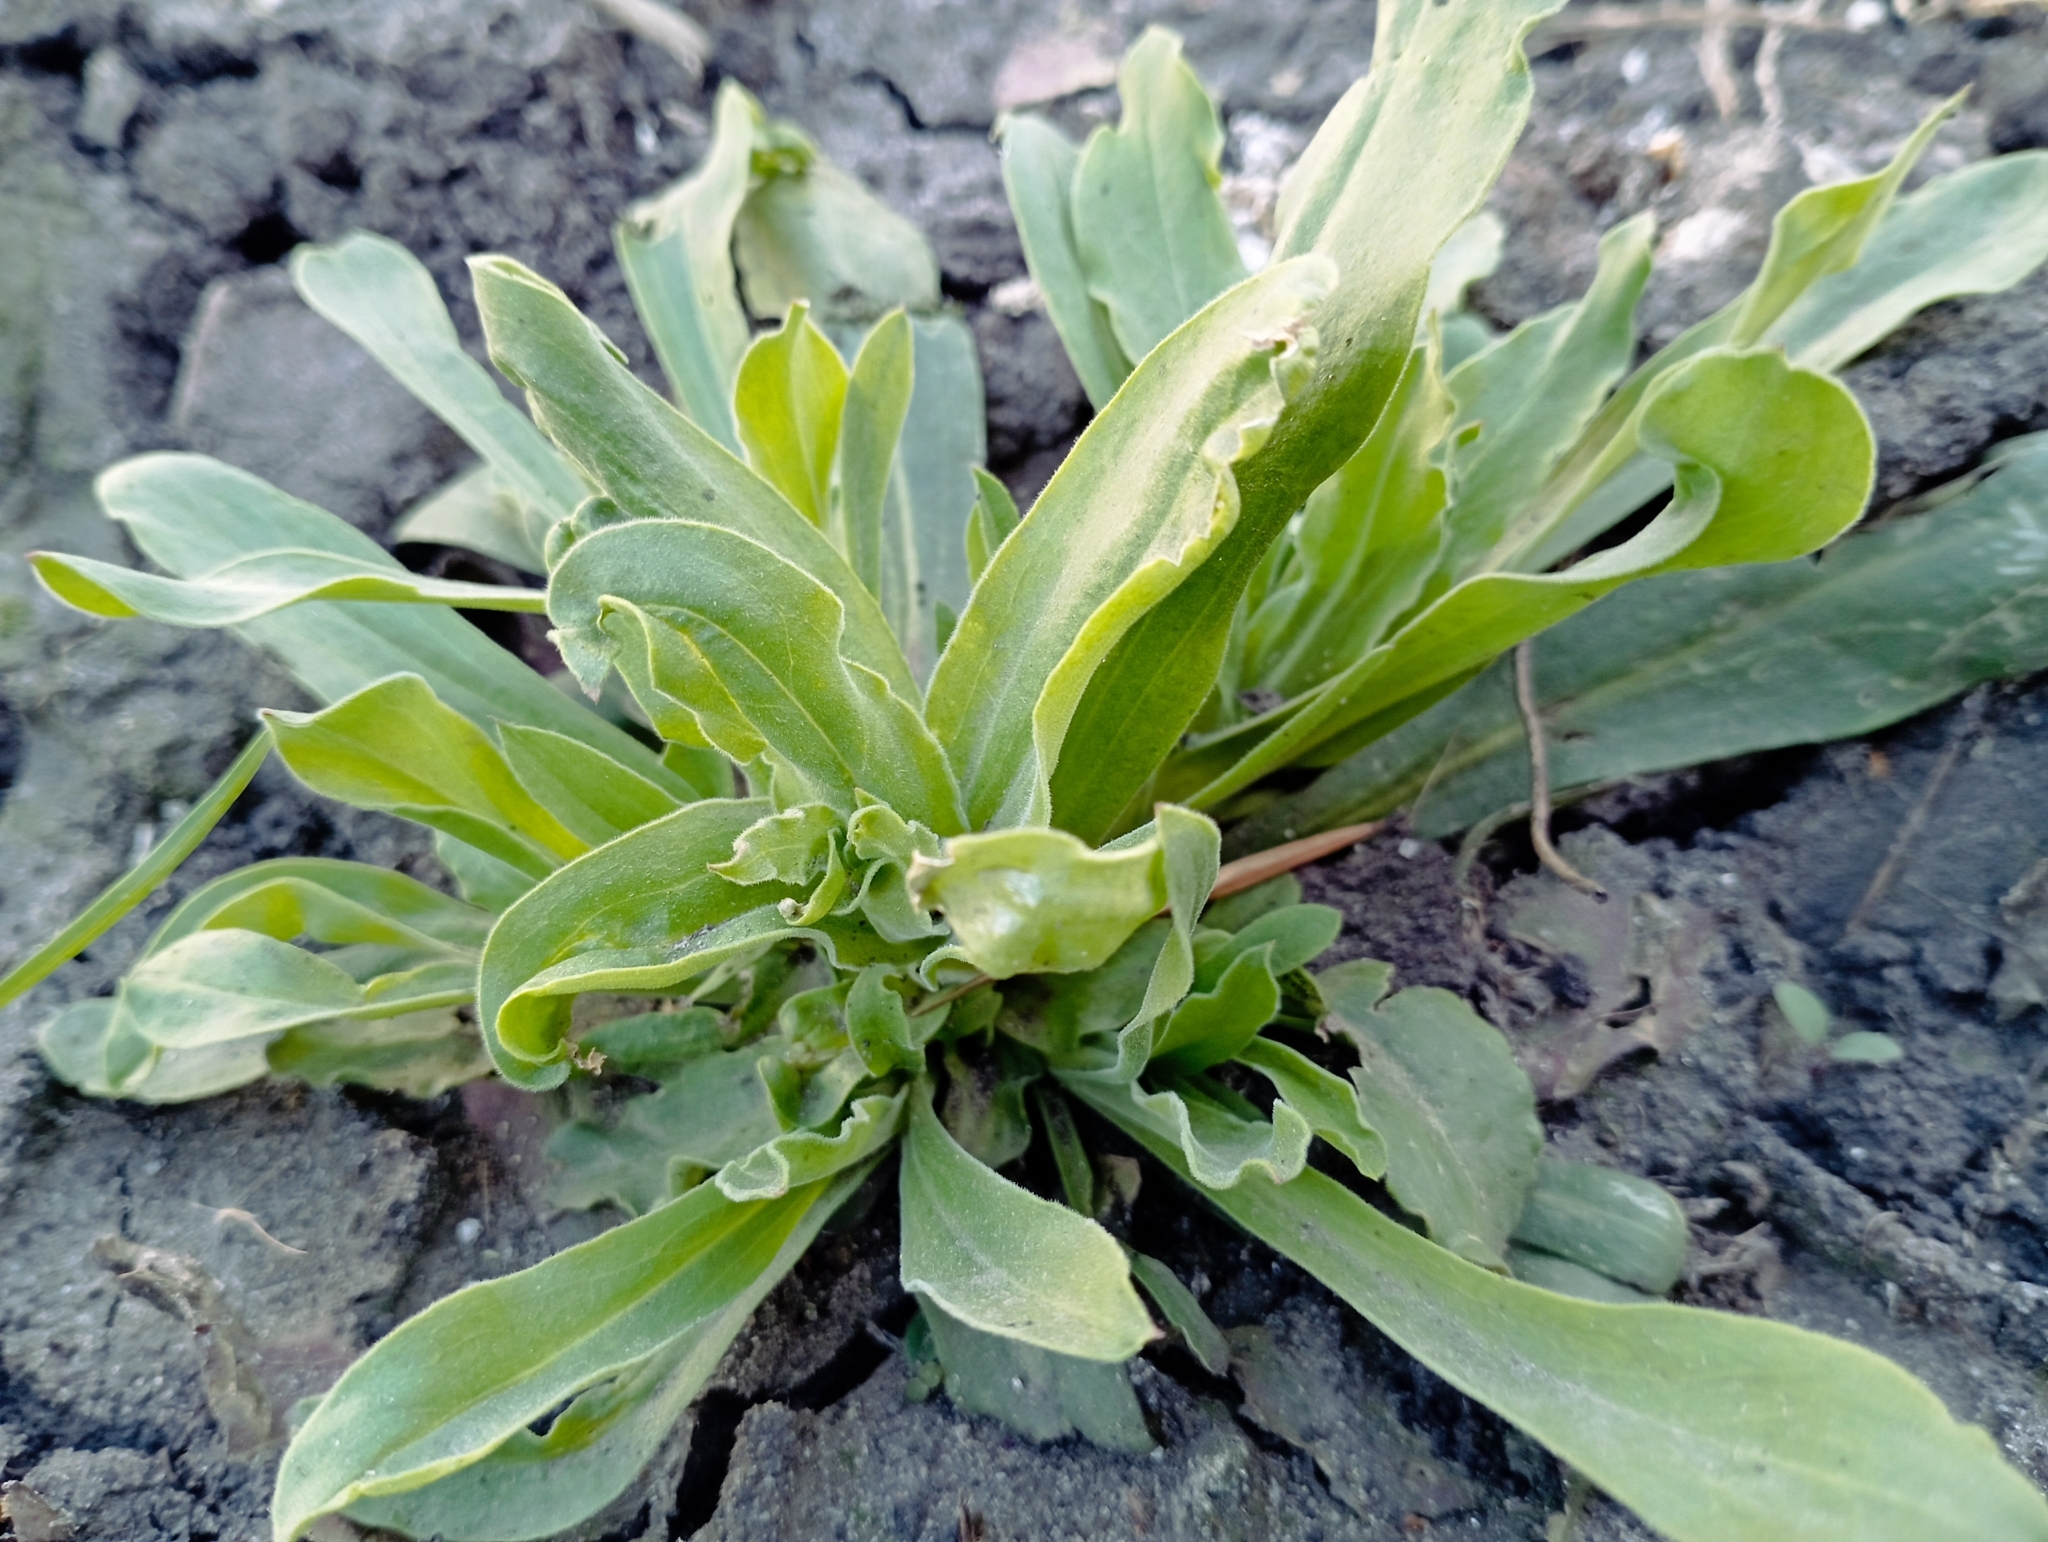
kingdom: Plantae
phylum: Tracheophyta
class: Magnoliopsida
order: Caryophyllales
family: Caryophyllaceae
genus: Gypsophila
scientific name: Gypsophila perfoliata
